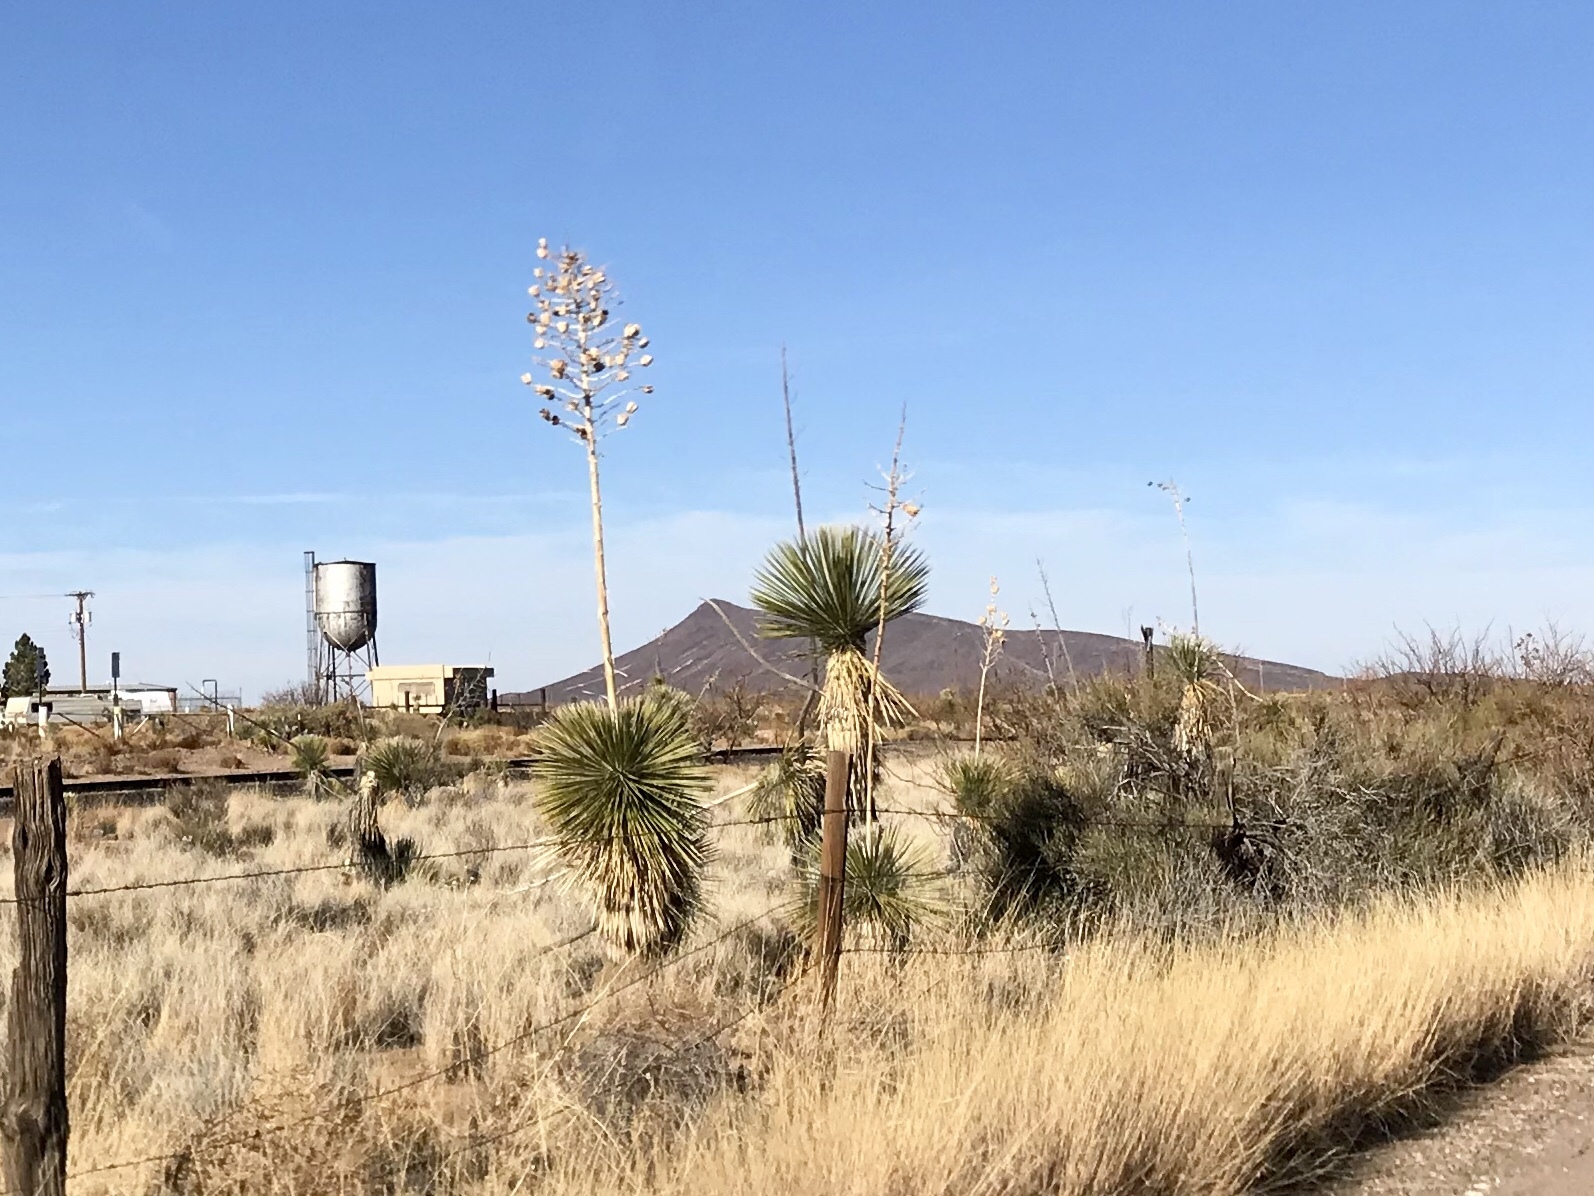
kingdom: Plantae
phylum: Tracheophyta
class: Liliopsida
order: Asparagales
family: Asparagaceae
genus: Yucca
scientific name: Yucca elata
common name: Palmella
